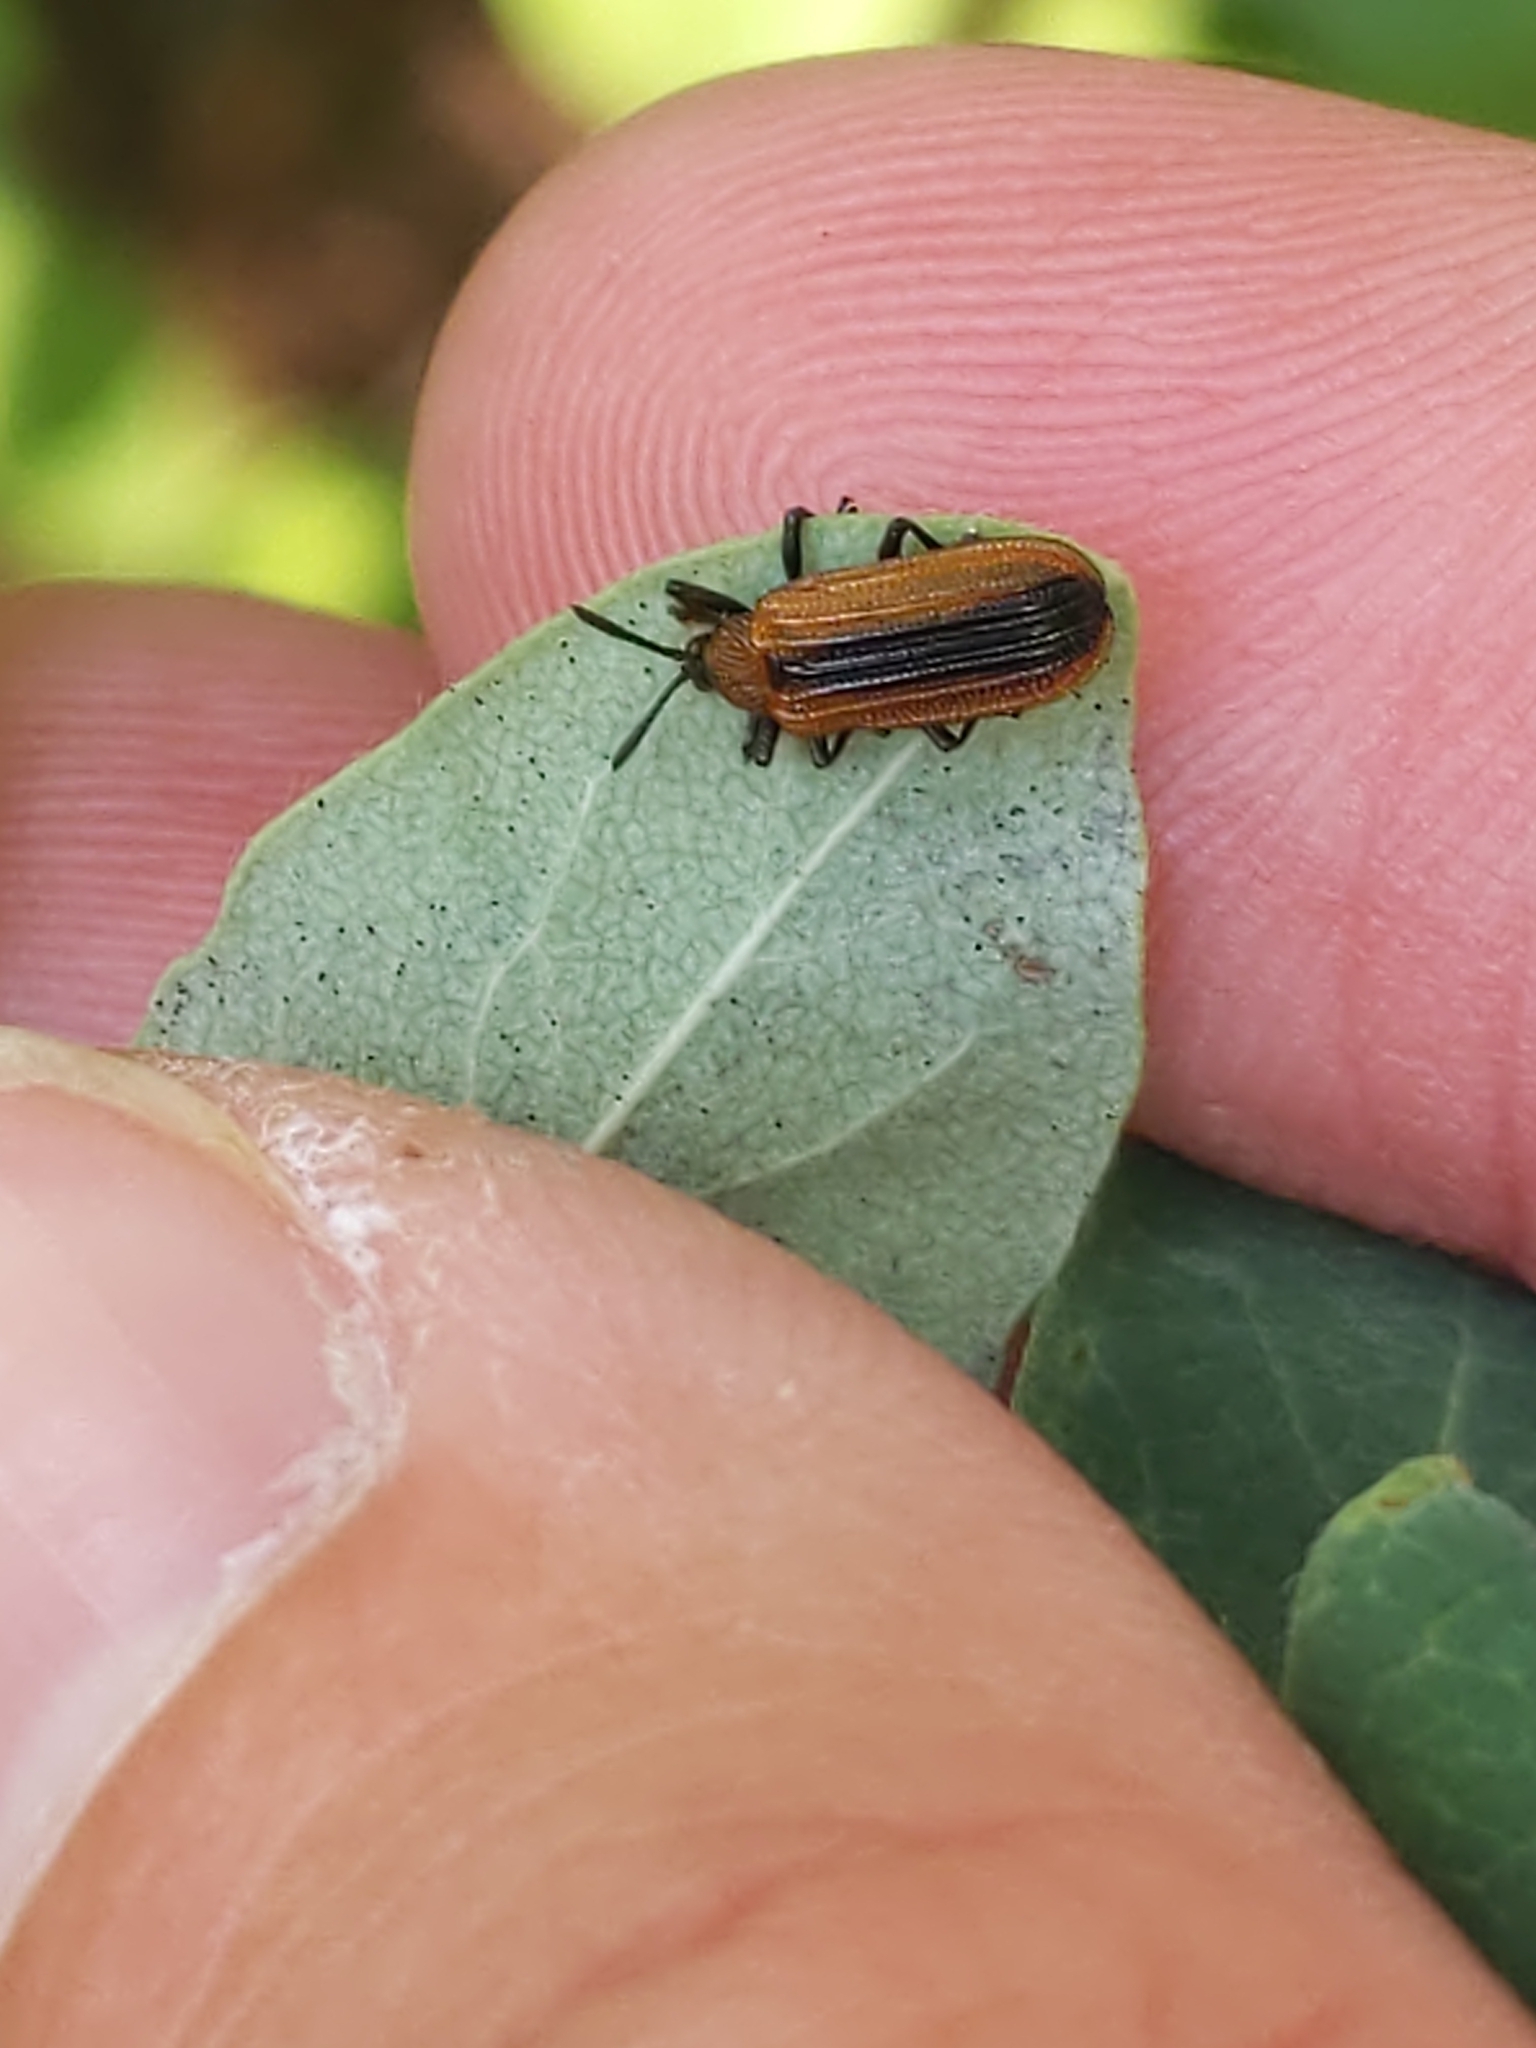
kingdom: Animalia
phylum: Arthropoda
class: Insecta
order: Coleoptera
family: Chrysomelidae
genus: Odontota
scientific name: Odontota dorsalis
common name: Locust leaf-miner beetle
